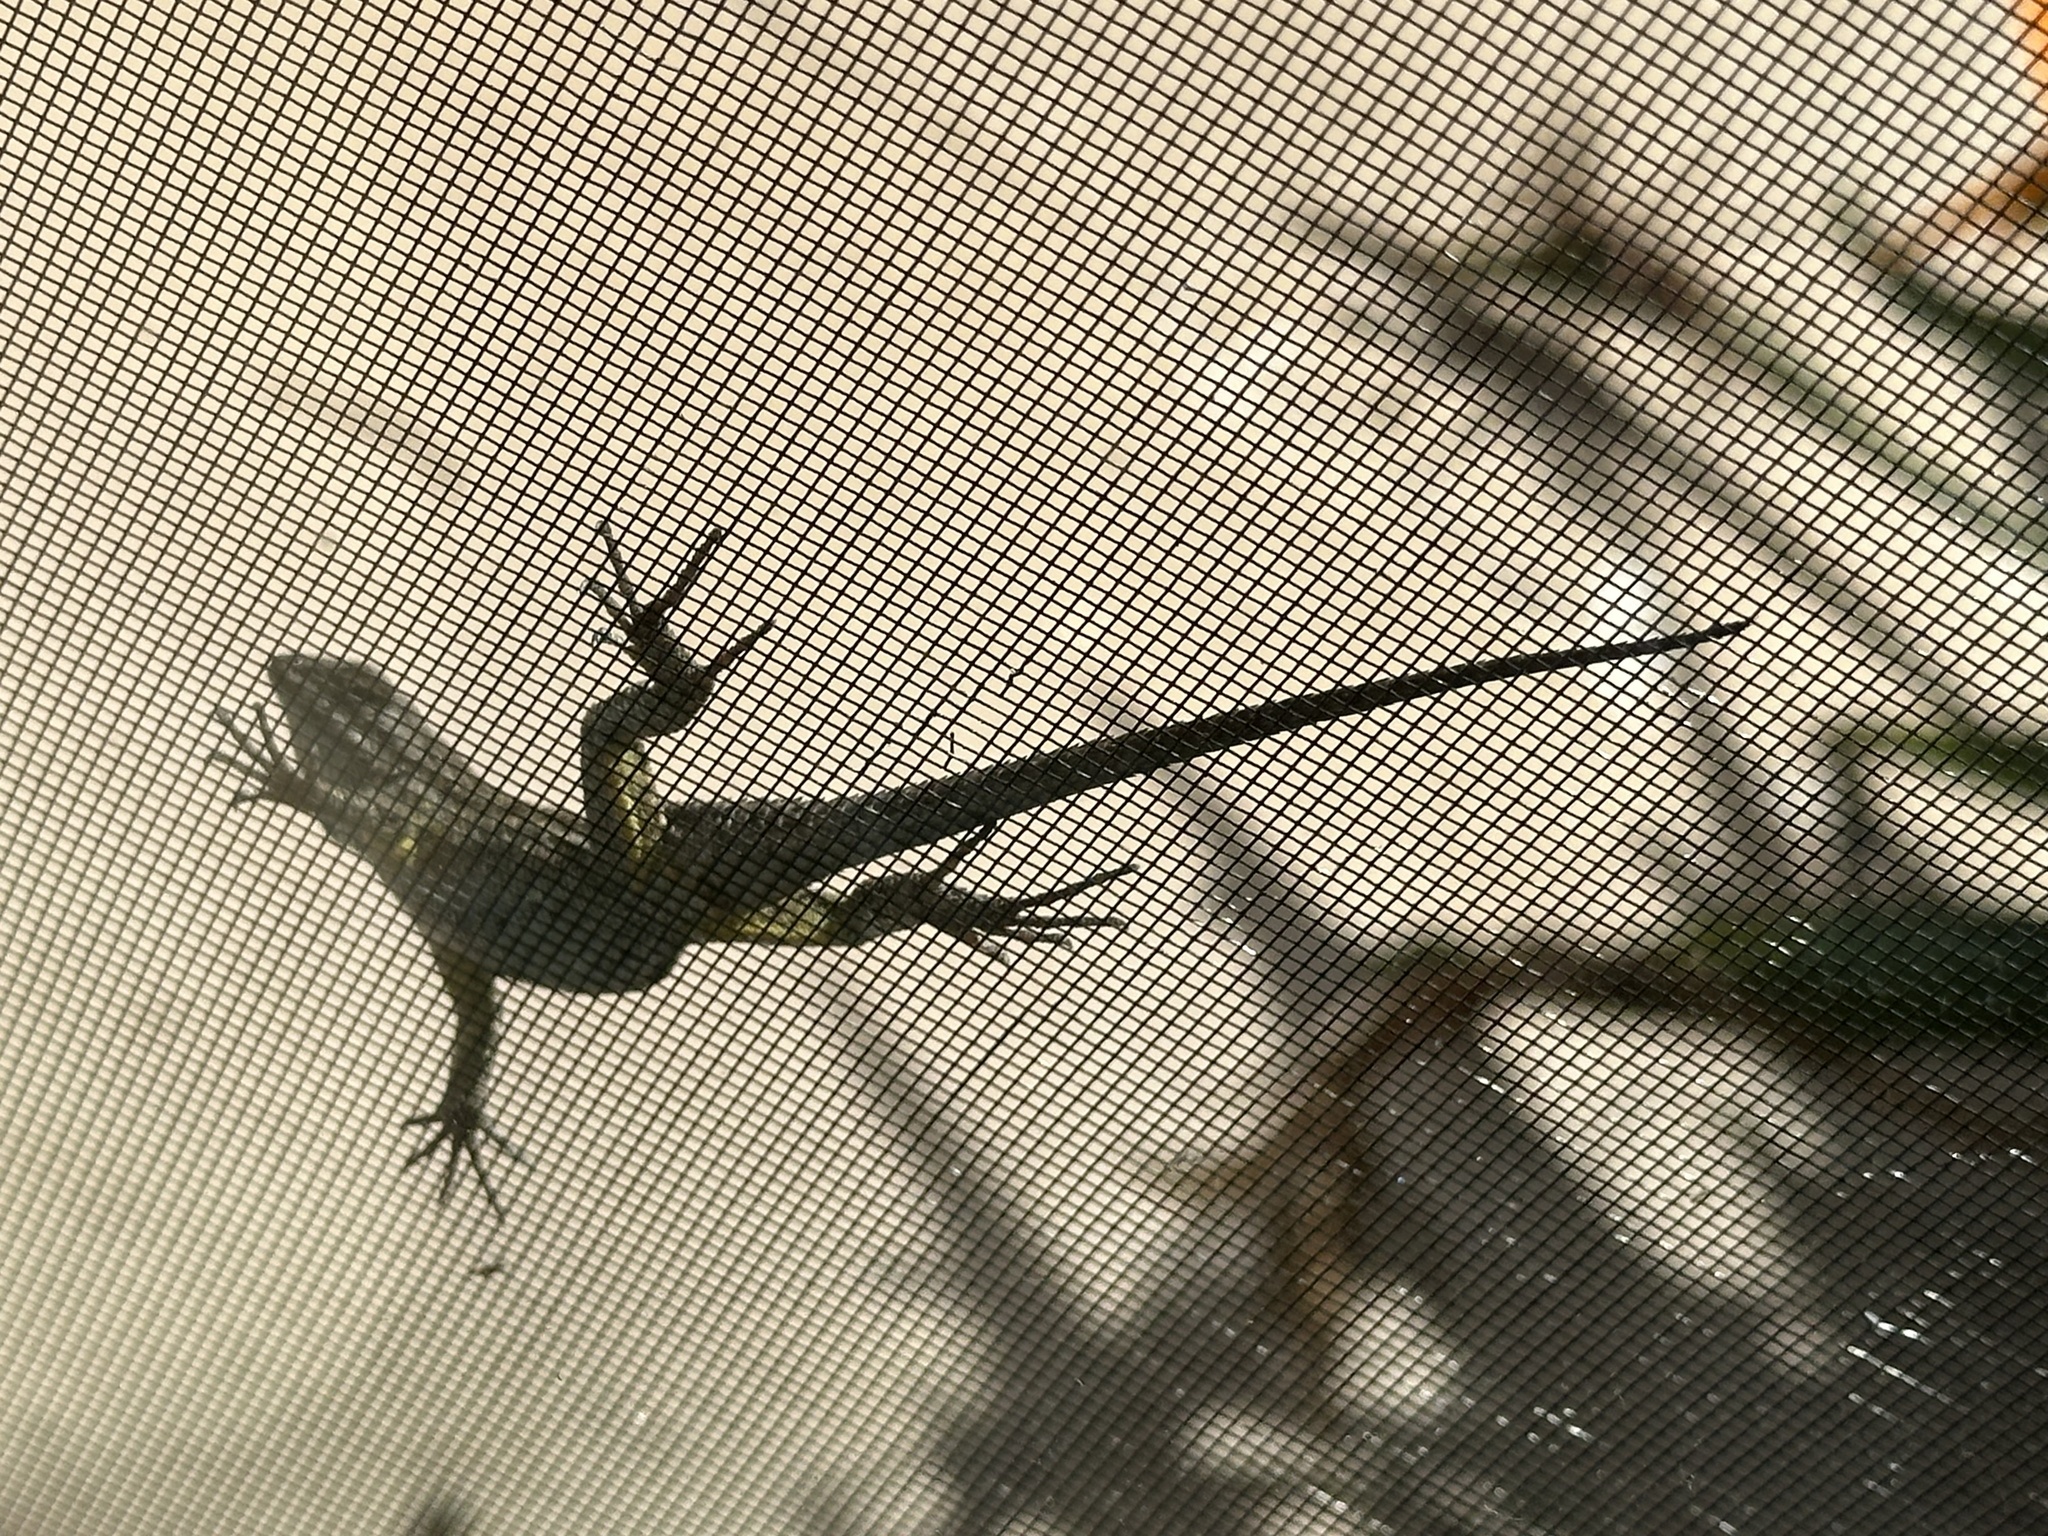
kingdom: Animalia
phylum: Chordata
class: Squamata
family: Phrynosomatidae
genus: Sceloporus
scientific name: Sceloporus occidentalis
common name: Western fence lizard
